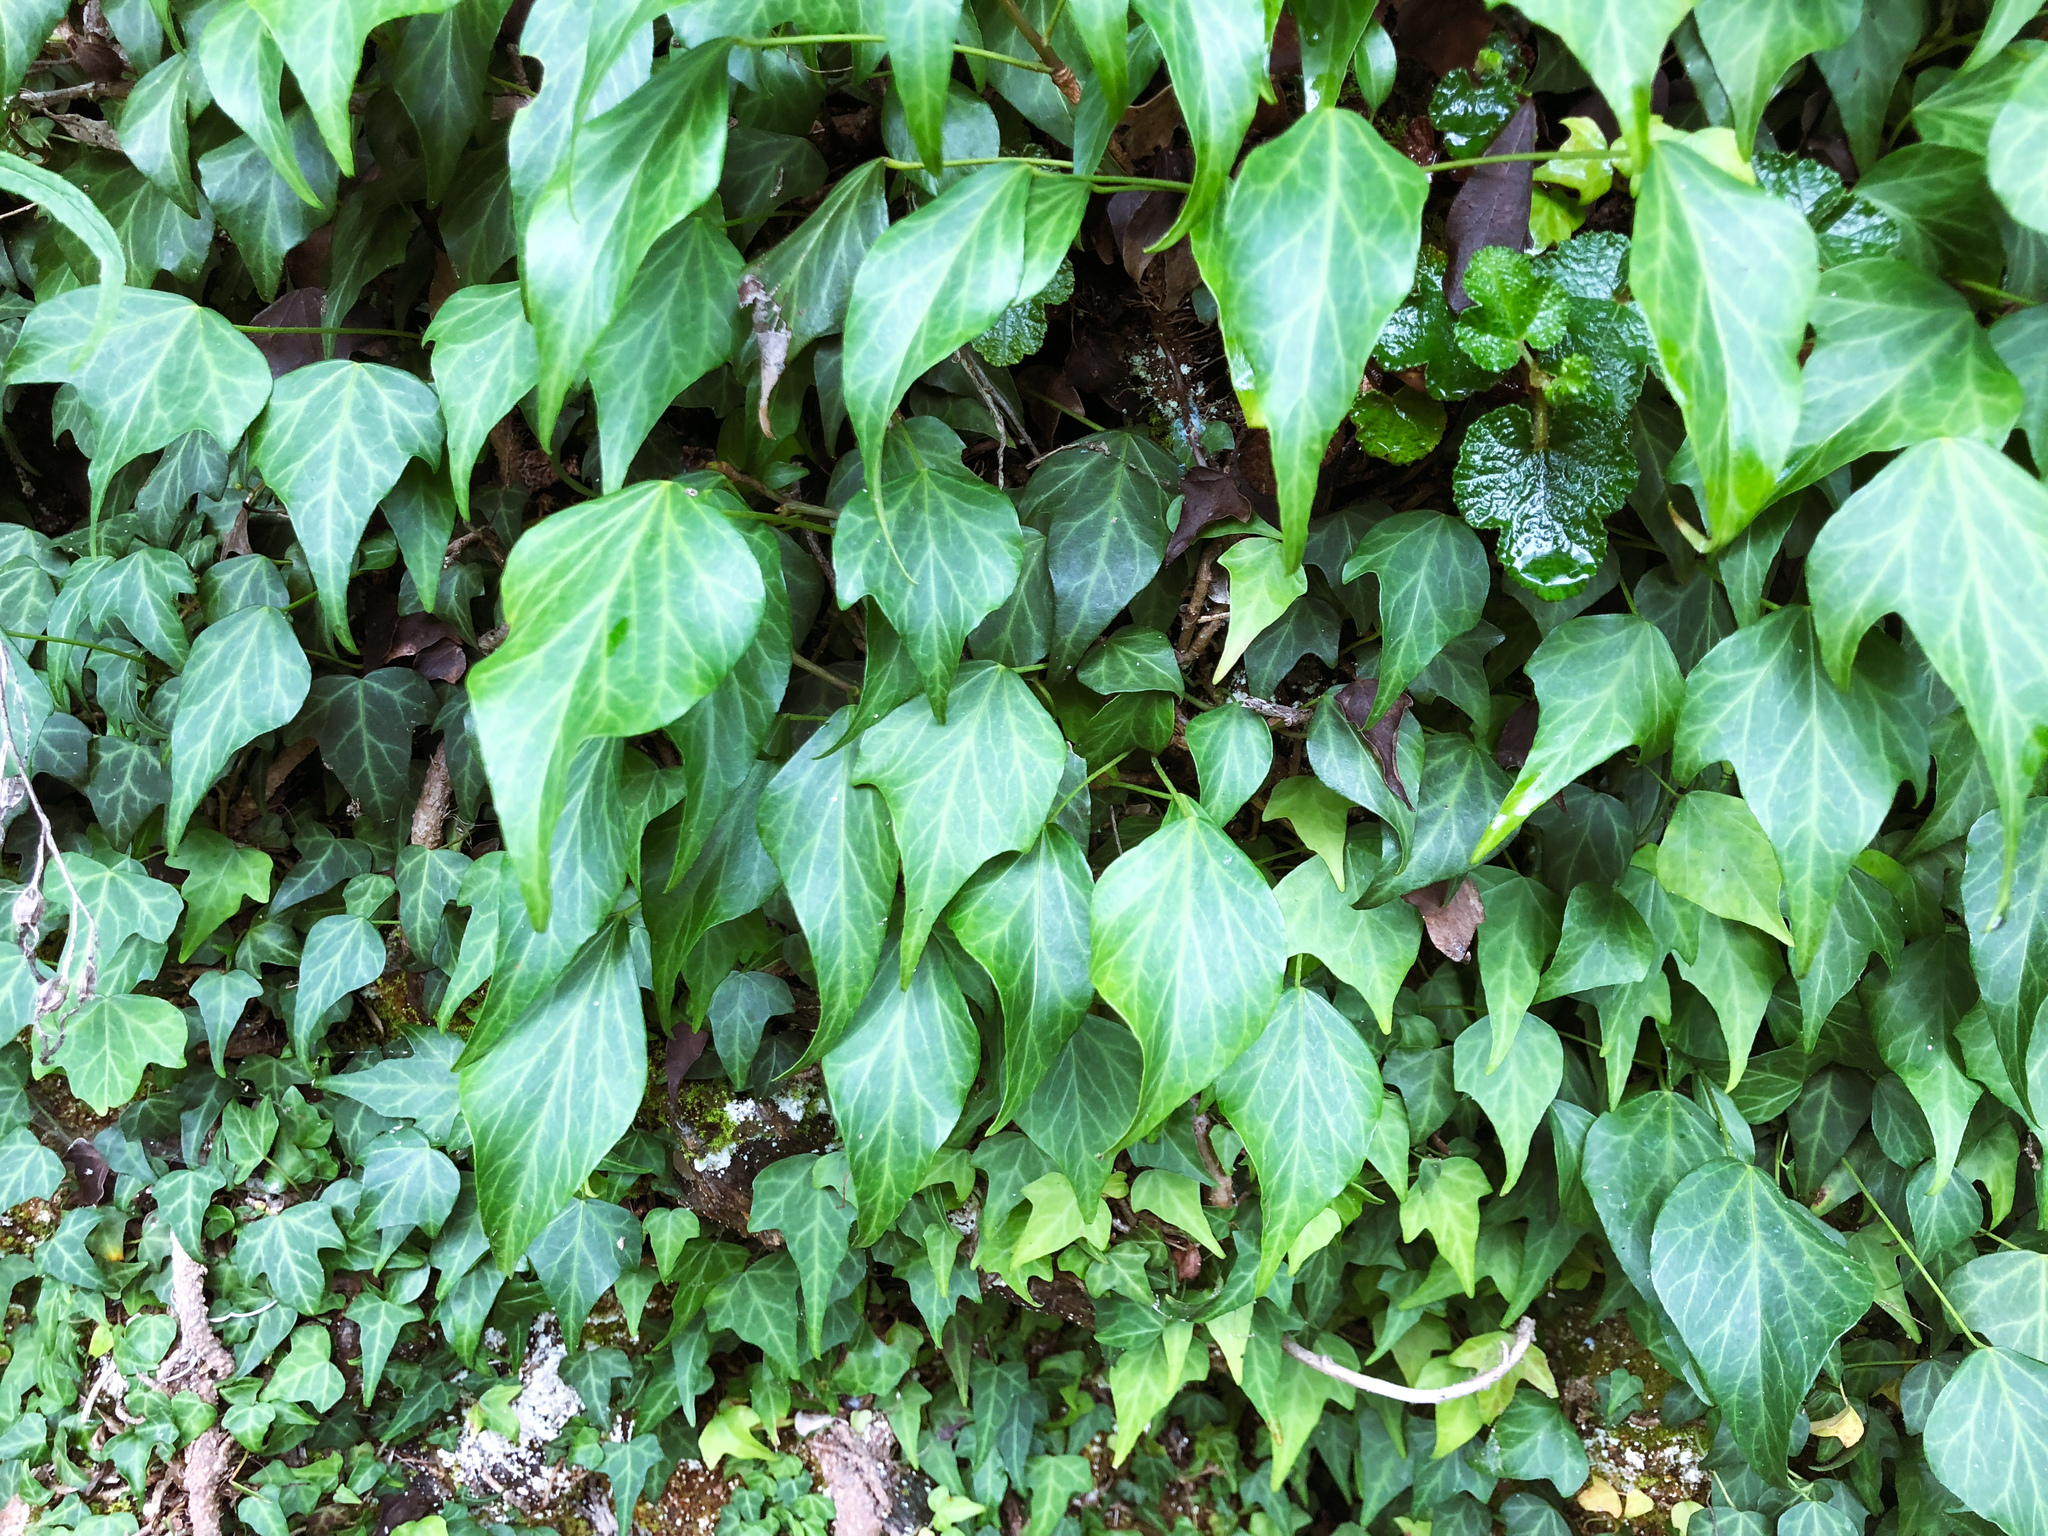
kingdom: Plantae
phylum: Tracheophyta
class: Magnoliopsida
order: Apiales
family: Araliaceae
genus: Hedera
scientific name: Hedera rhombea
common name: Japanese ivy
